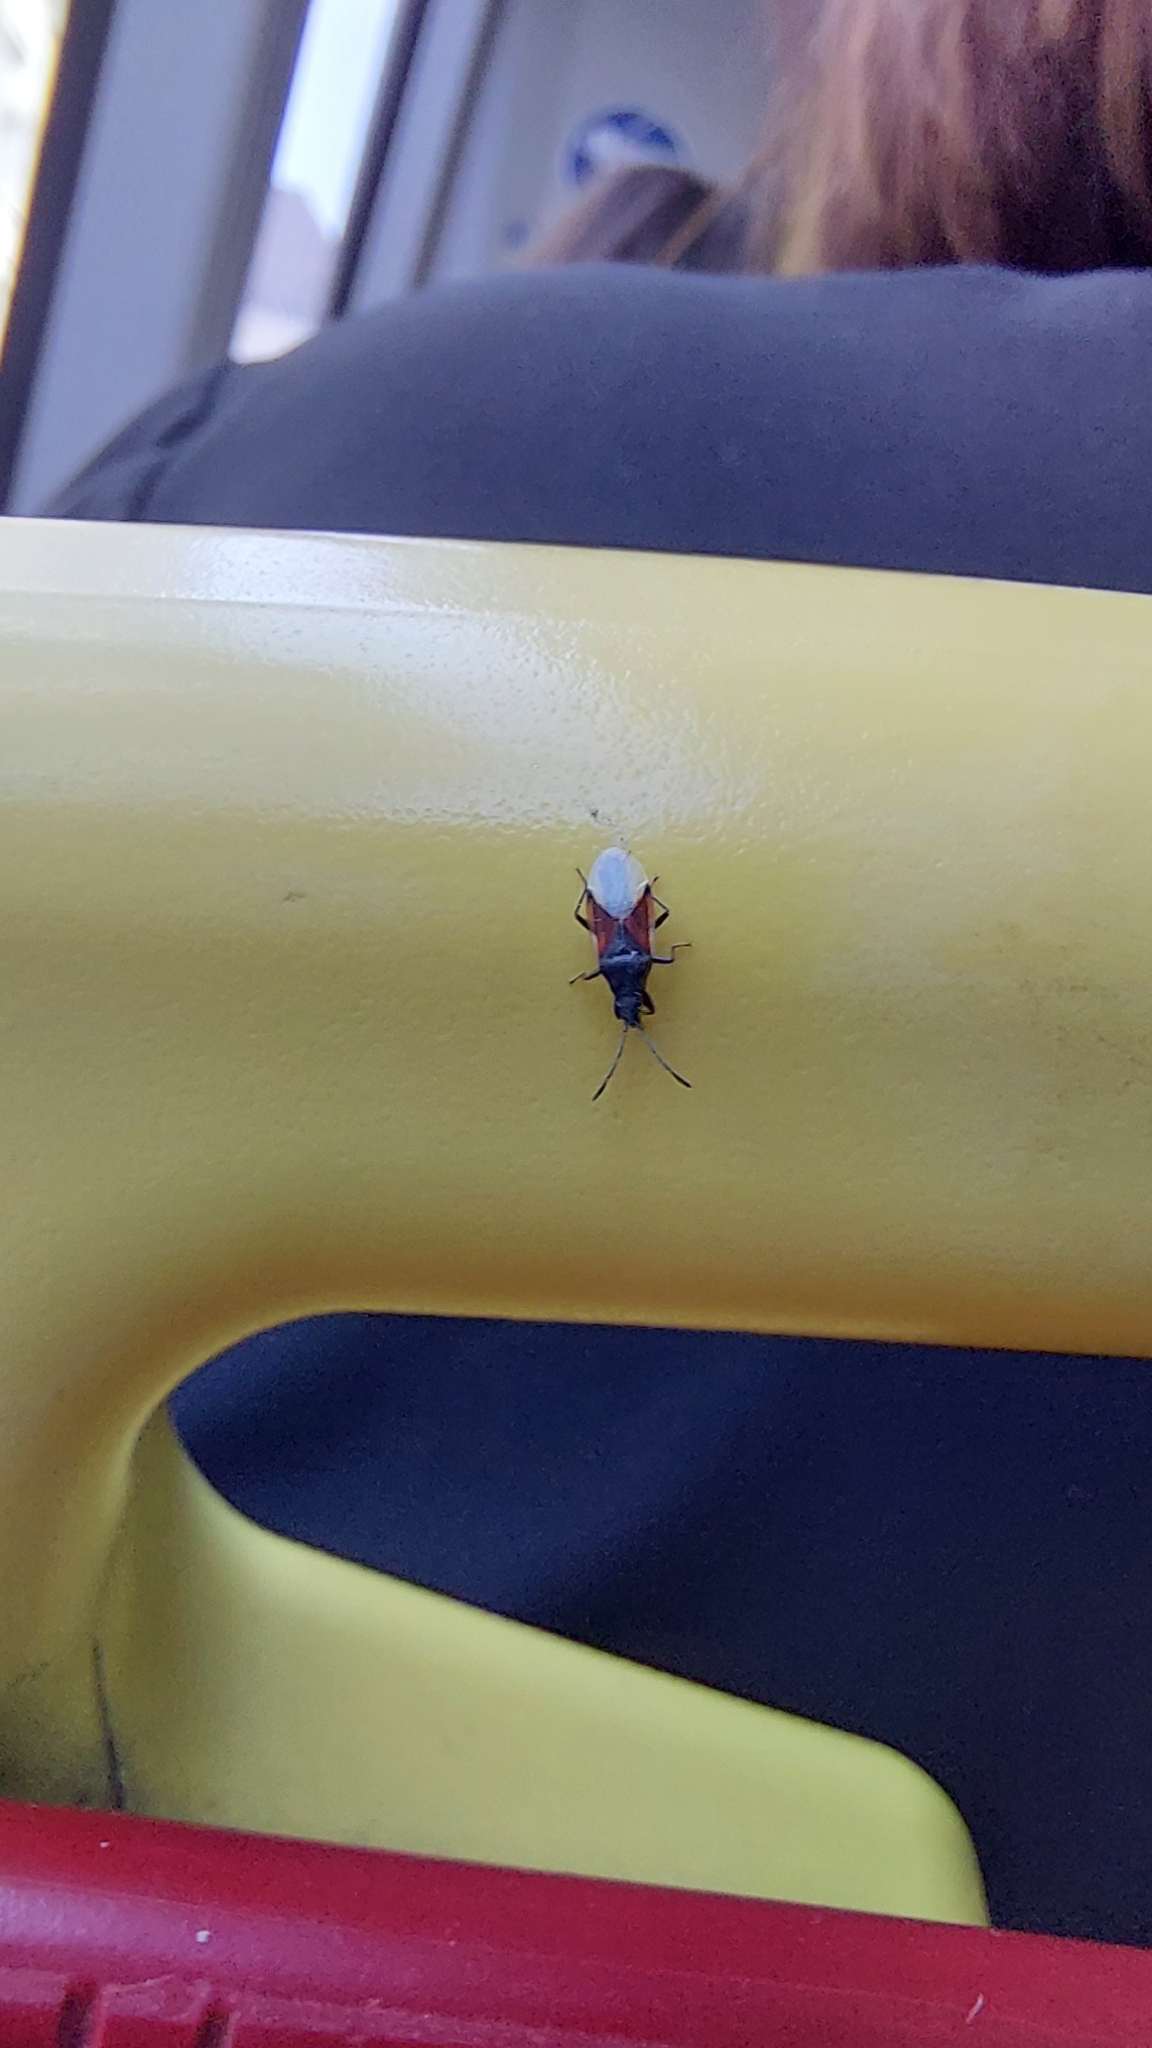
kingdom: Animalia
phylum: Arthropoda
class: Insecta
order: Hemiptera
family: Oxycarenidae
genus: Oxycarenus
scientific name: Oxycarenus lavaterae
